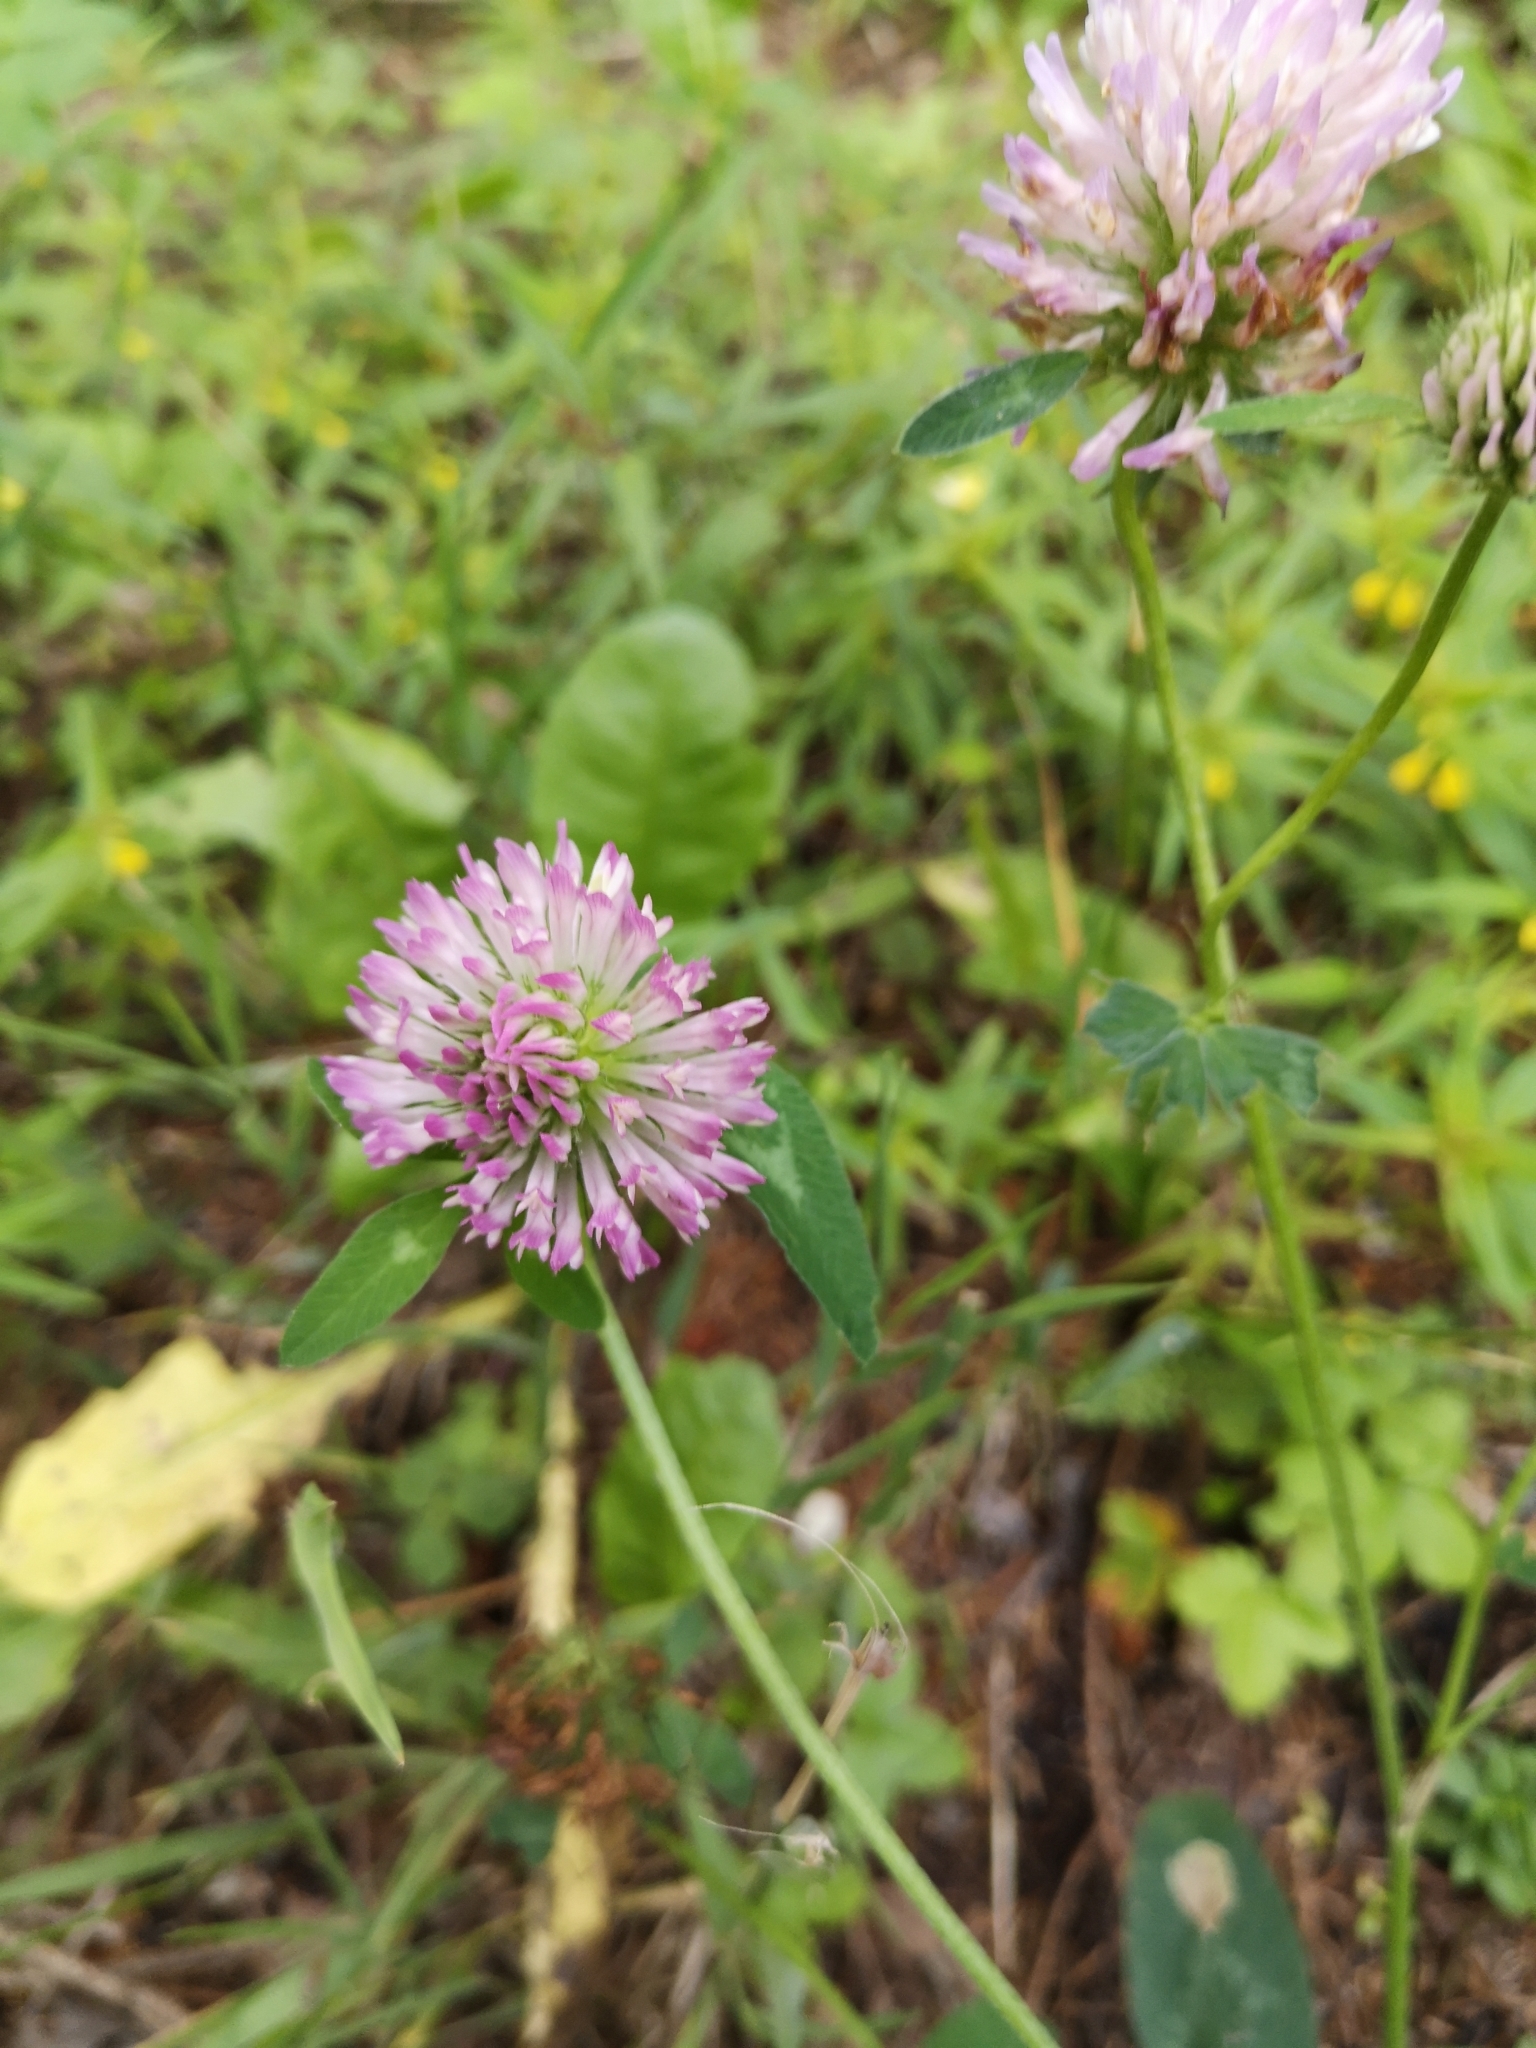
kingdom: Plantae
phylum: Tracheophyta
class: Magnoliopsida
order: Fabales
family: Fabaceae
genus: Trifolium
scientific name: Trifolium pratense
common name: Red clover
